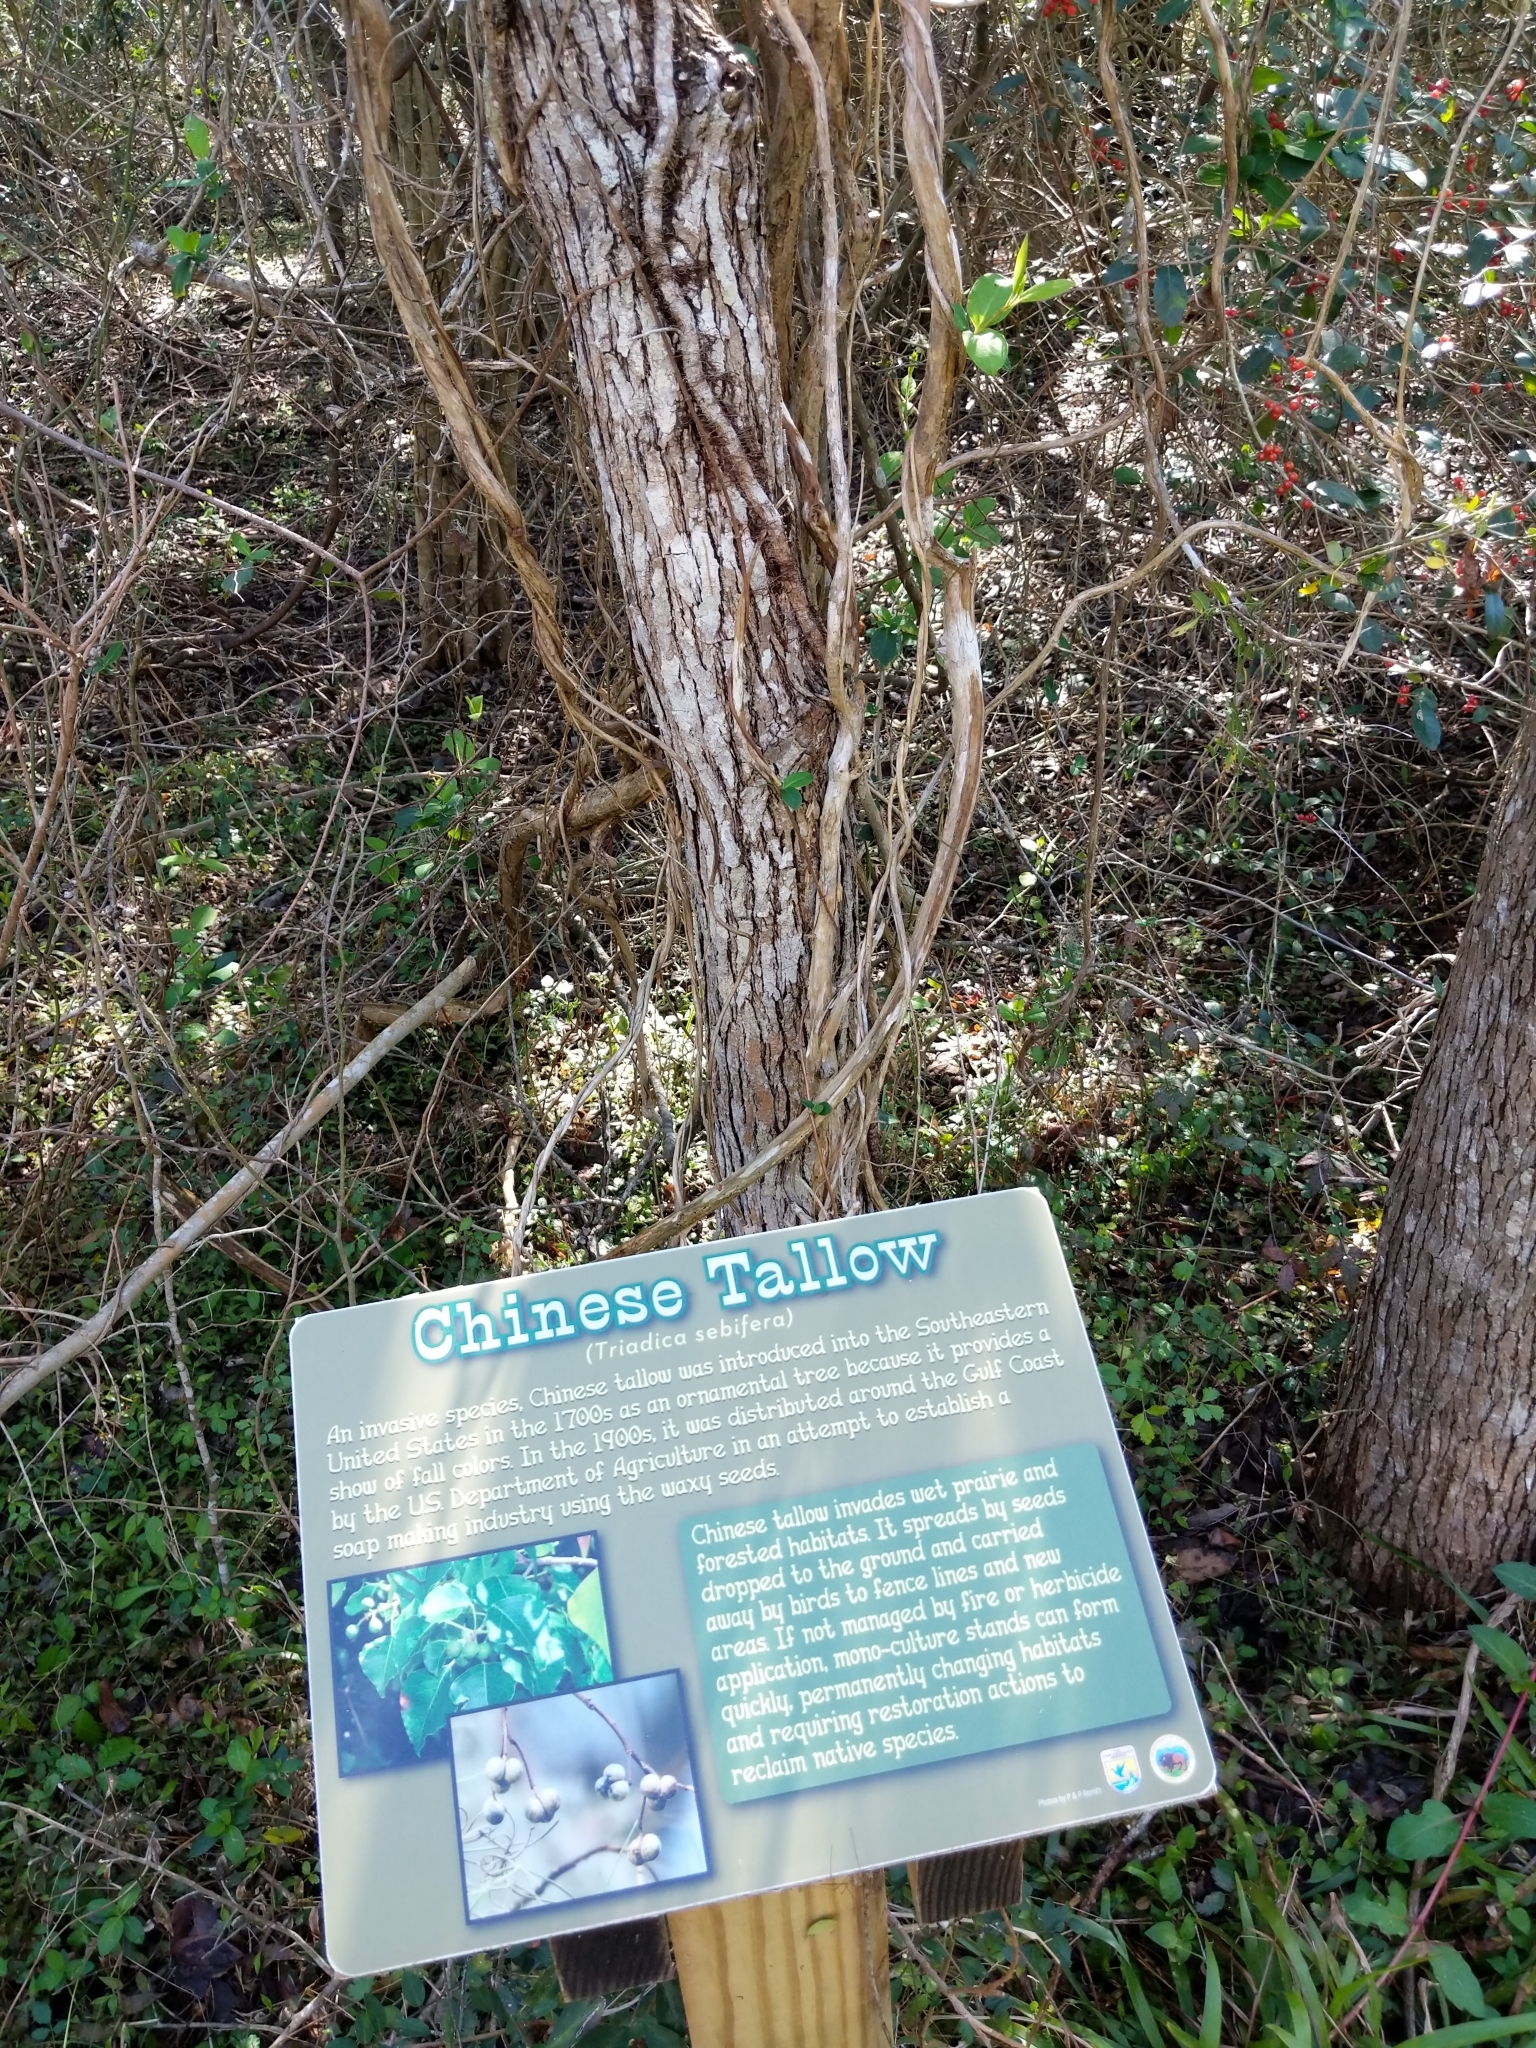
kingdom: Plantae
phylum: Tracheophyta
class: Magnoliopsida
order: Malpighiales
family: Euphorbiaceae
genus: Triadica
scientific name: Triadica sebifera
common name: Chinese tallow
